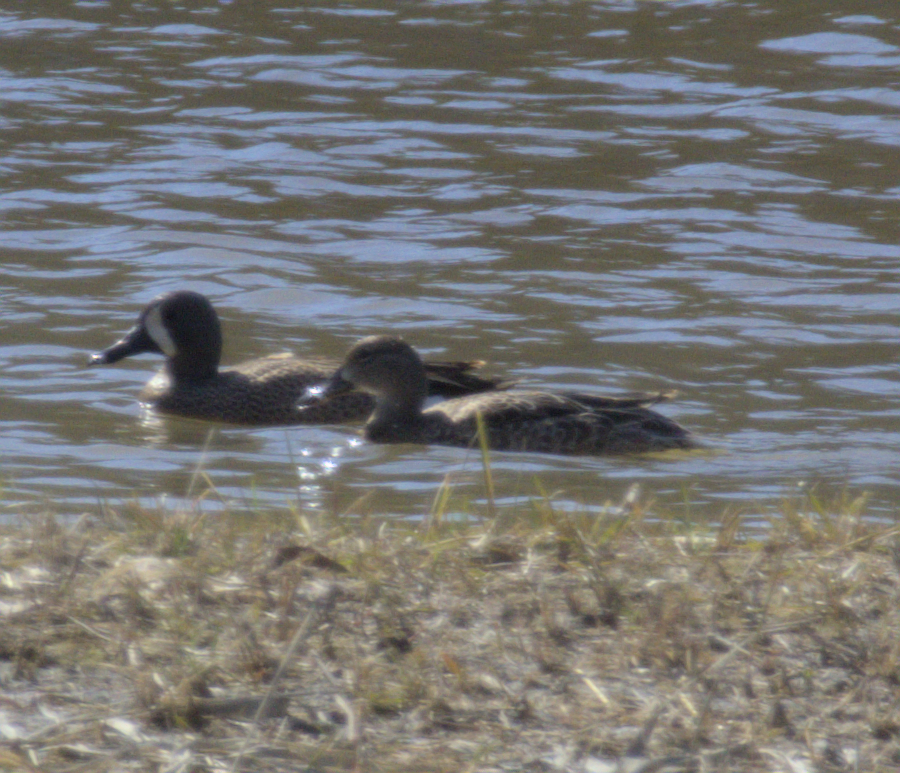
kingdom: Animalia
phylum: Chordata
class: Aves
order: Anseriformes
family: Anatidae
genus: Spatula
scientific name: Spatula discors
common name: Blue-winged teal
